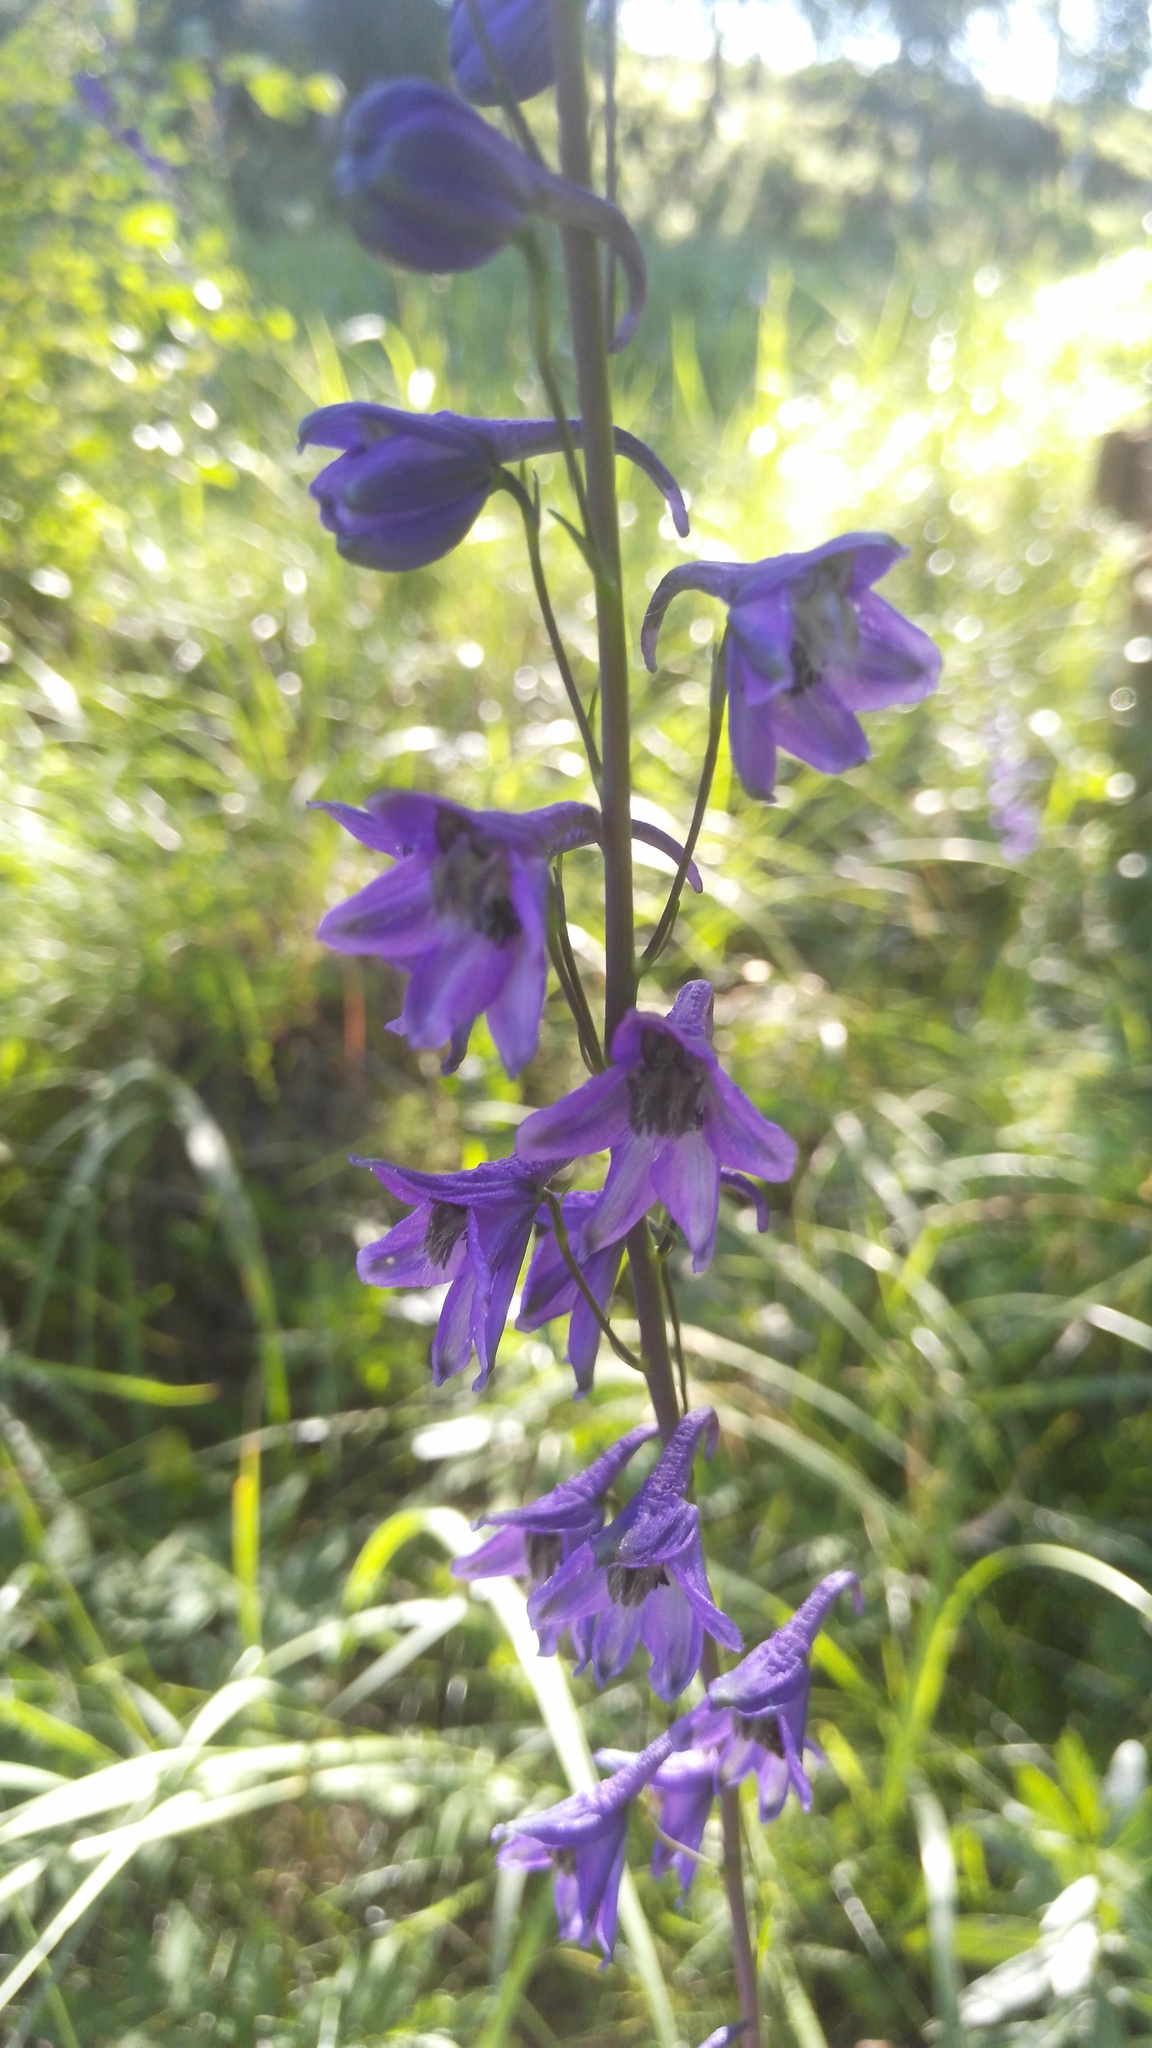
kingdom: Plantae
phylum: Tracheophyta
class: Magnoliopsida
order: Ranunculales
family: Ranunculaceae
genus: Delphinium
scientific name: Delphinium crassifolium
